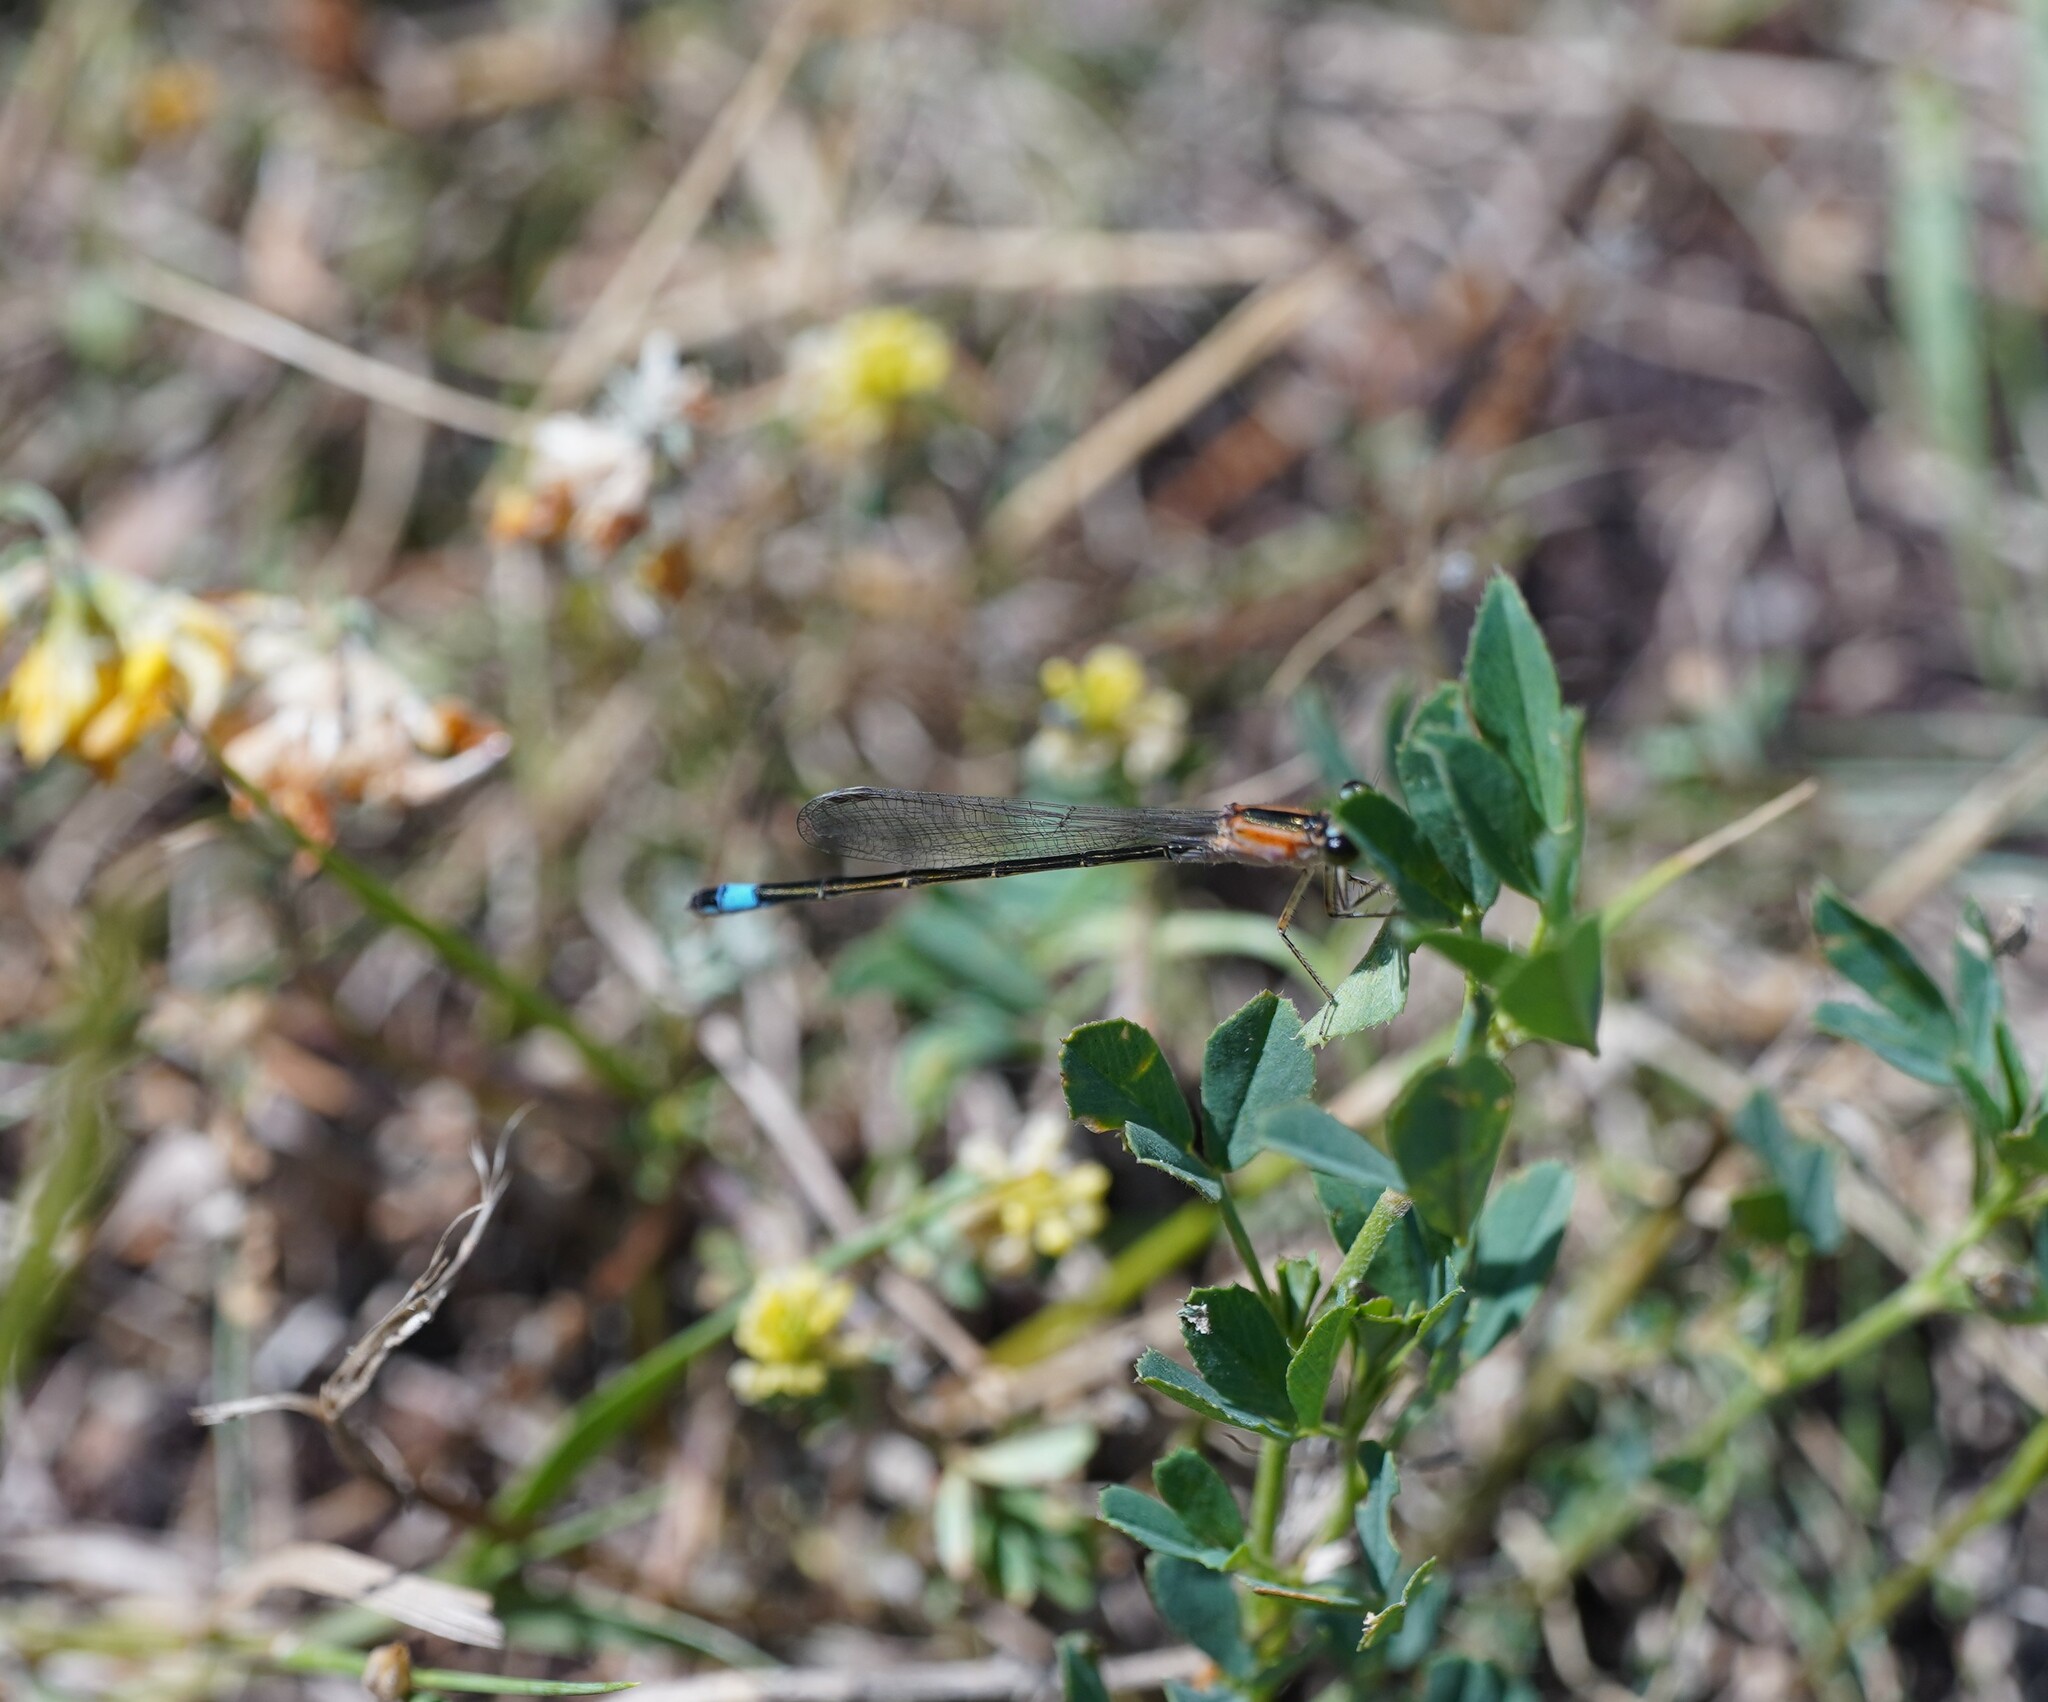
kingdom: Animalia
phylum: Arthropoda
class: Insecta
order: Odonata
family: Coenagrionidae
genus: Ischnura
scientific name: Ischnura elegans
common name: Blue-tailed damselfly
